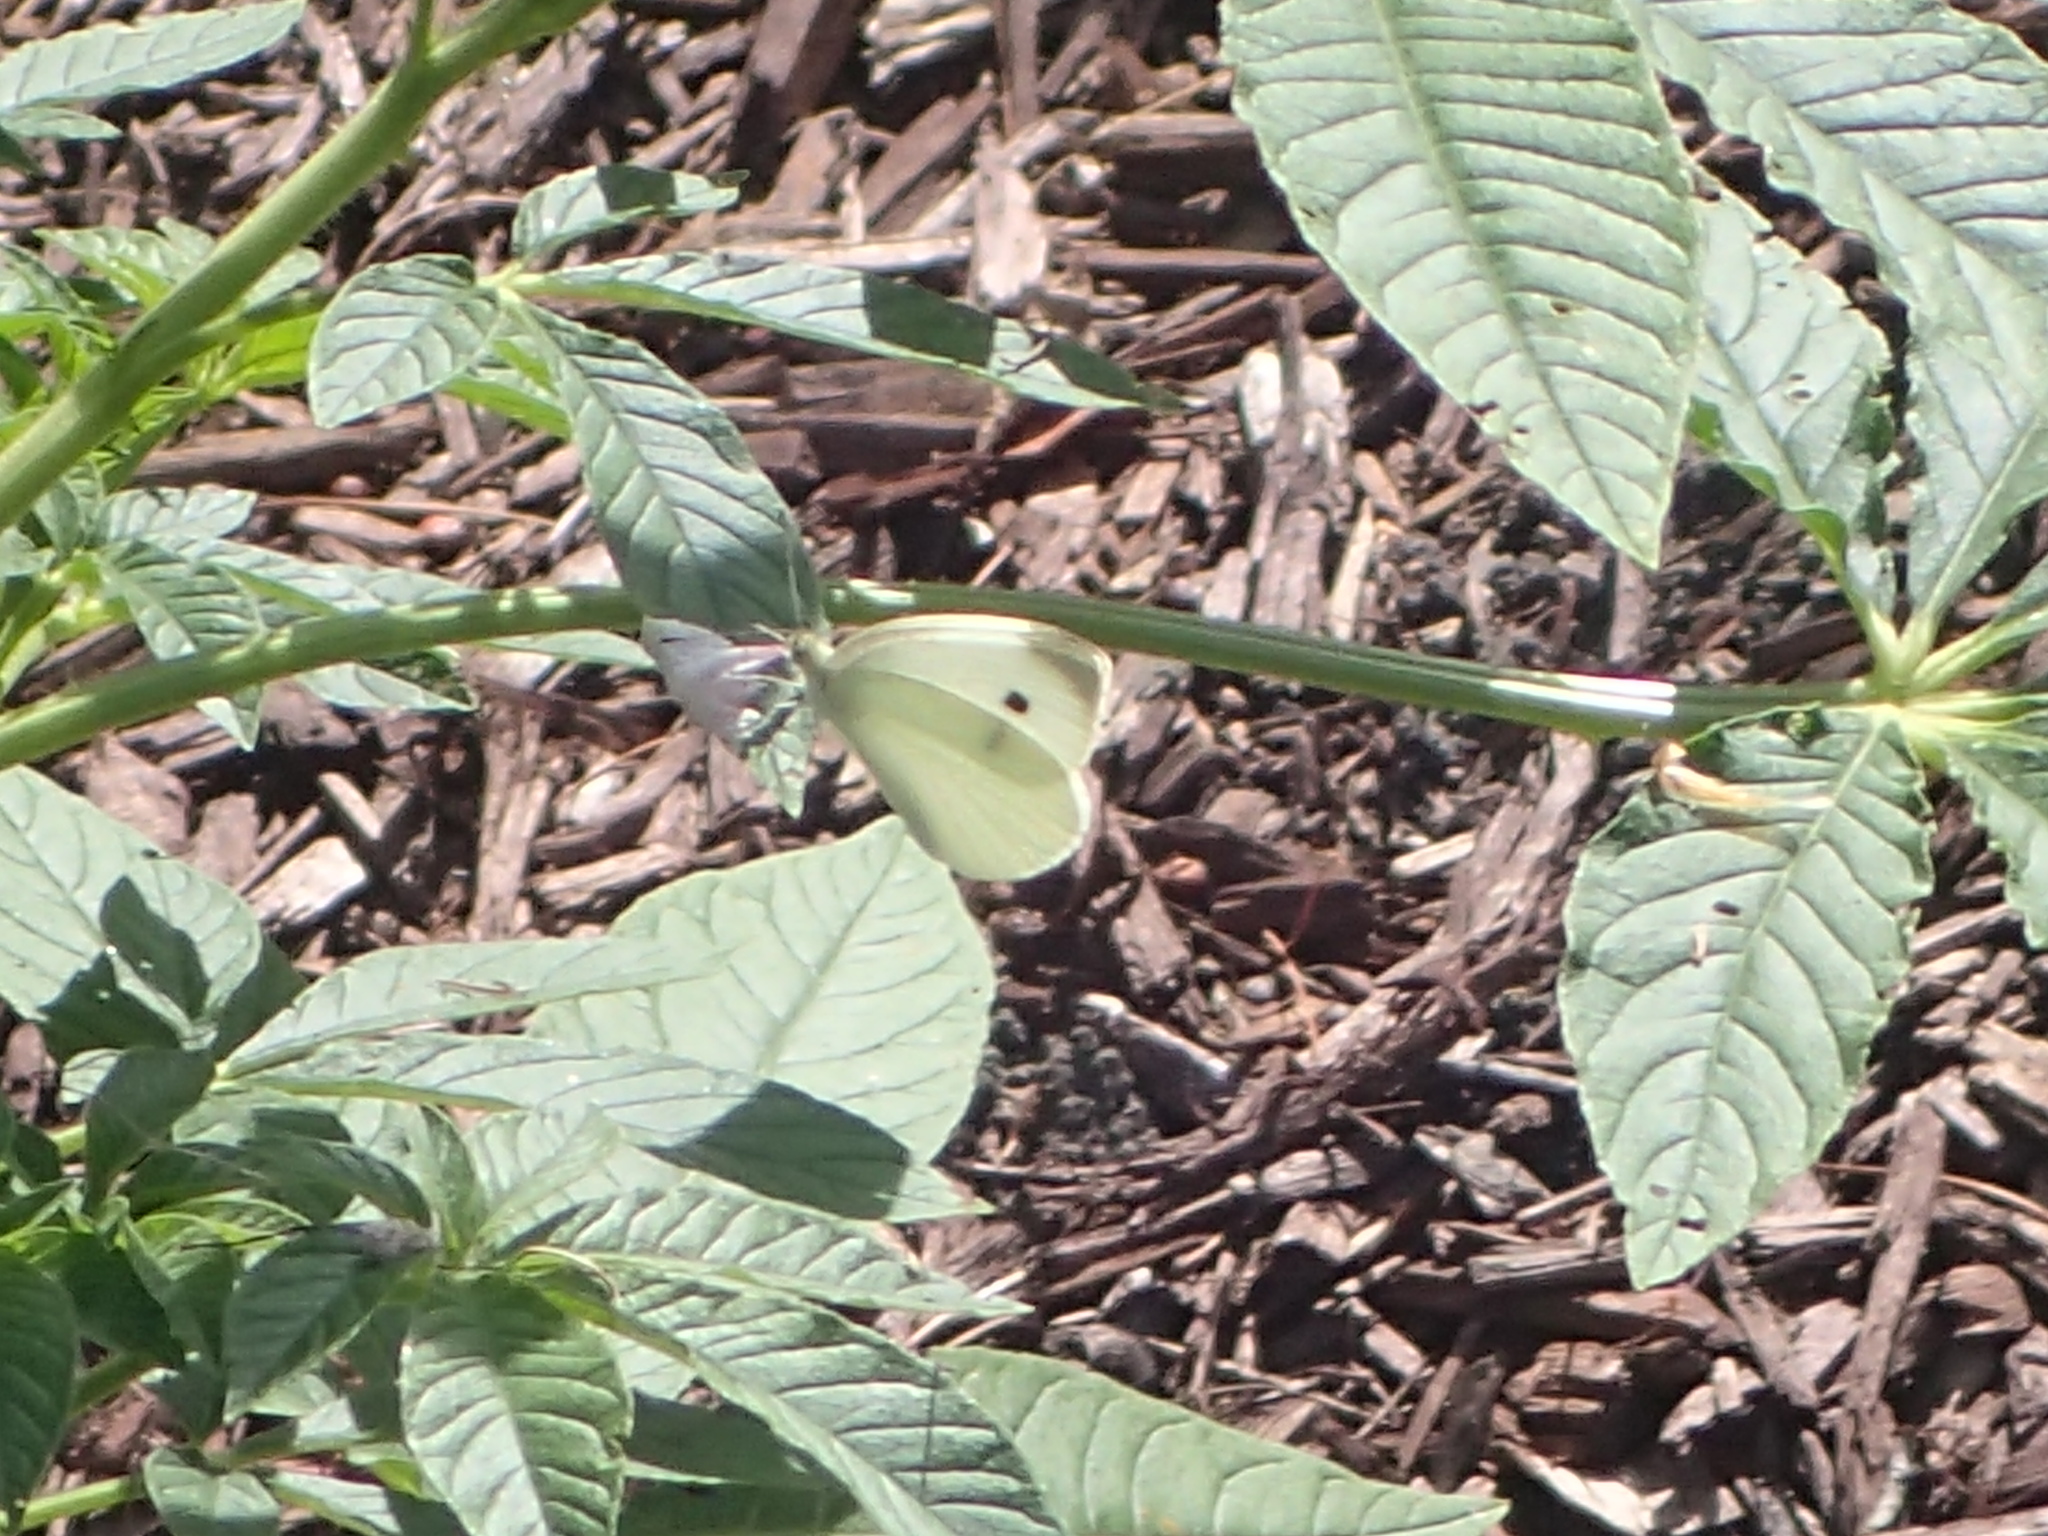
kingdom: Animalia
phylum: Arthropoda
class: Insecta
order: Lepidoptera
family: Pieridae
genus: Pieris
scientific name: Pieris rapae
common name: Small white
